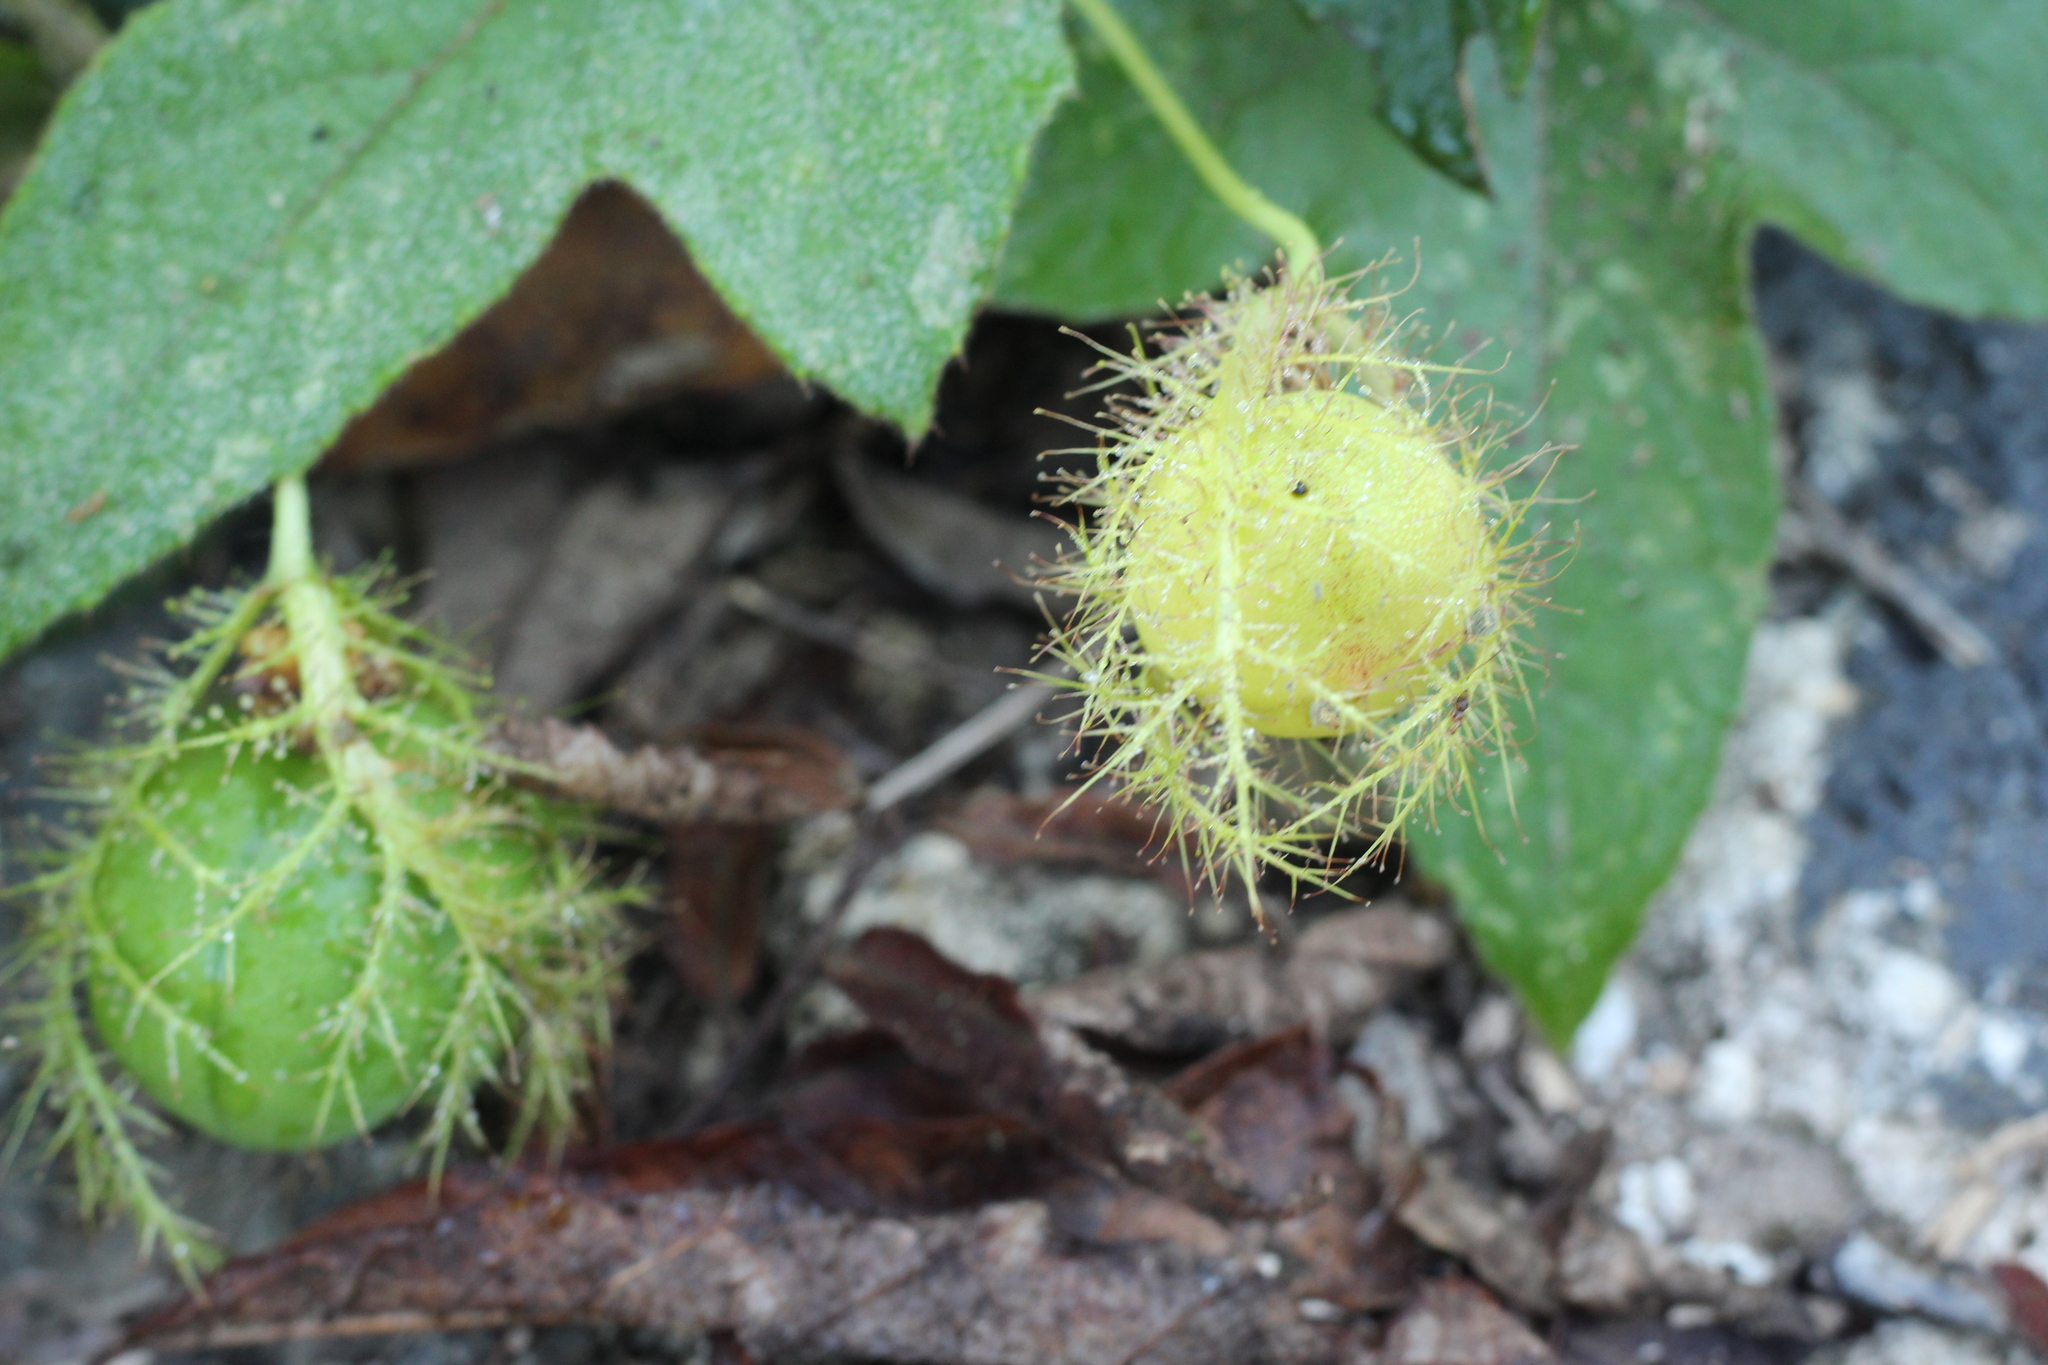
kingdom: Plantae
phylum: Tracheophyta
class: Magnoliopsida
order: Malpighiales
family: Passifloraceae
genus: Passiflora
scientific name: Passiflora foetida
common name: Fetid passionflower
